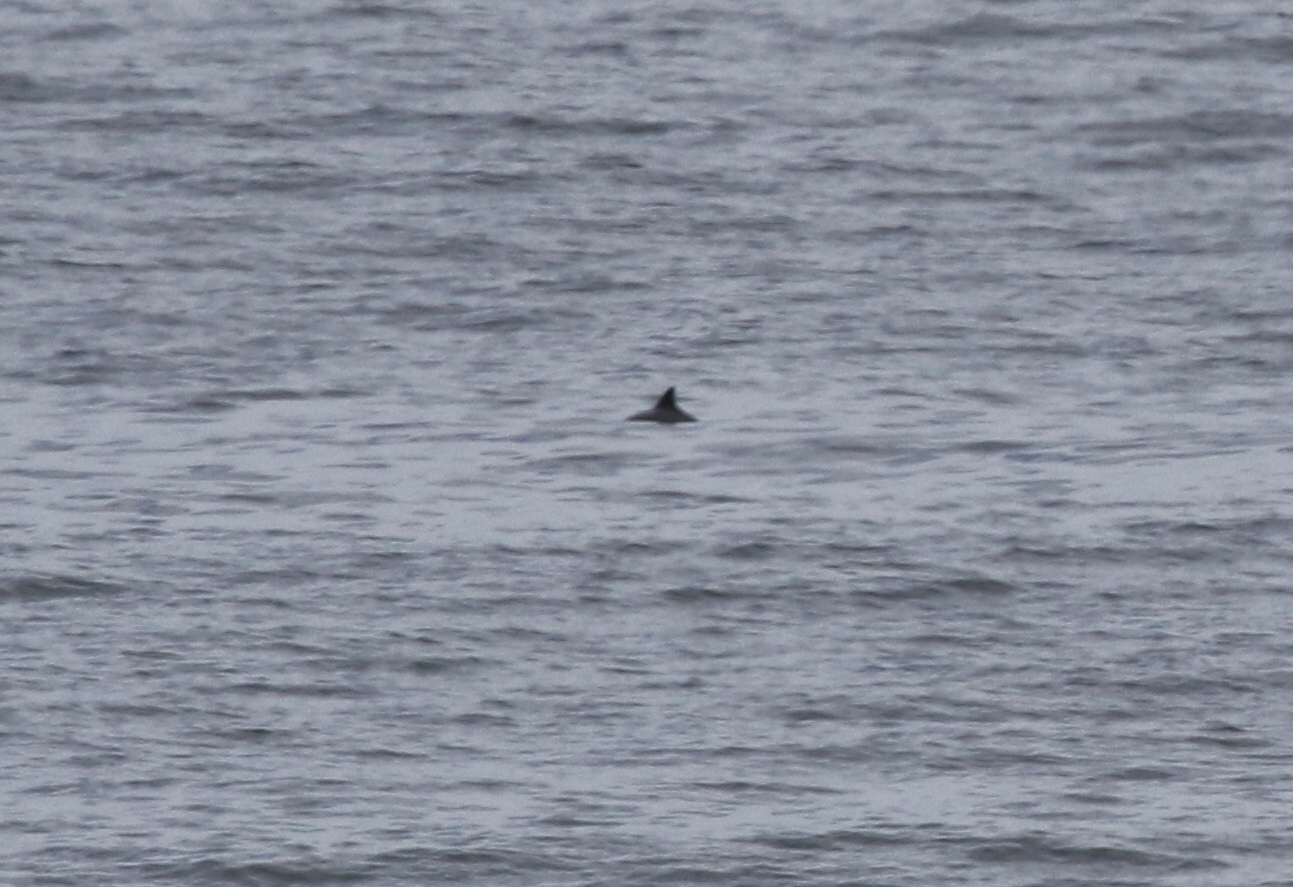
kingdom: Animalia
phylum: Chordata
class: Mammalia
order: Cetacea
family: Phocoenidae
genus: Phocoena
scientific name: Phocoena phocoena
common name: Harbor porpoise
